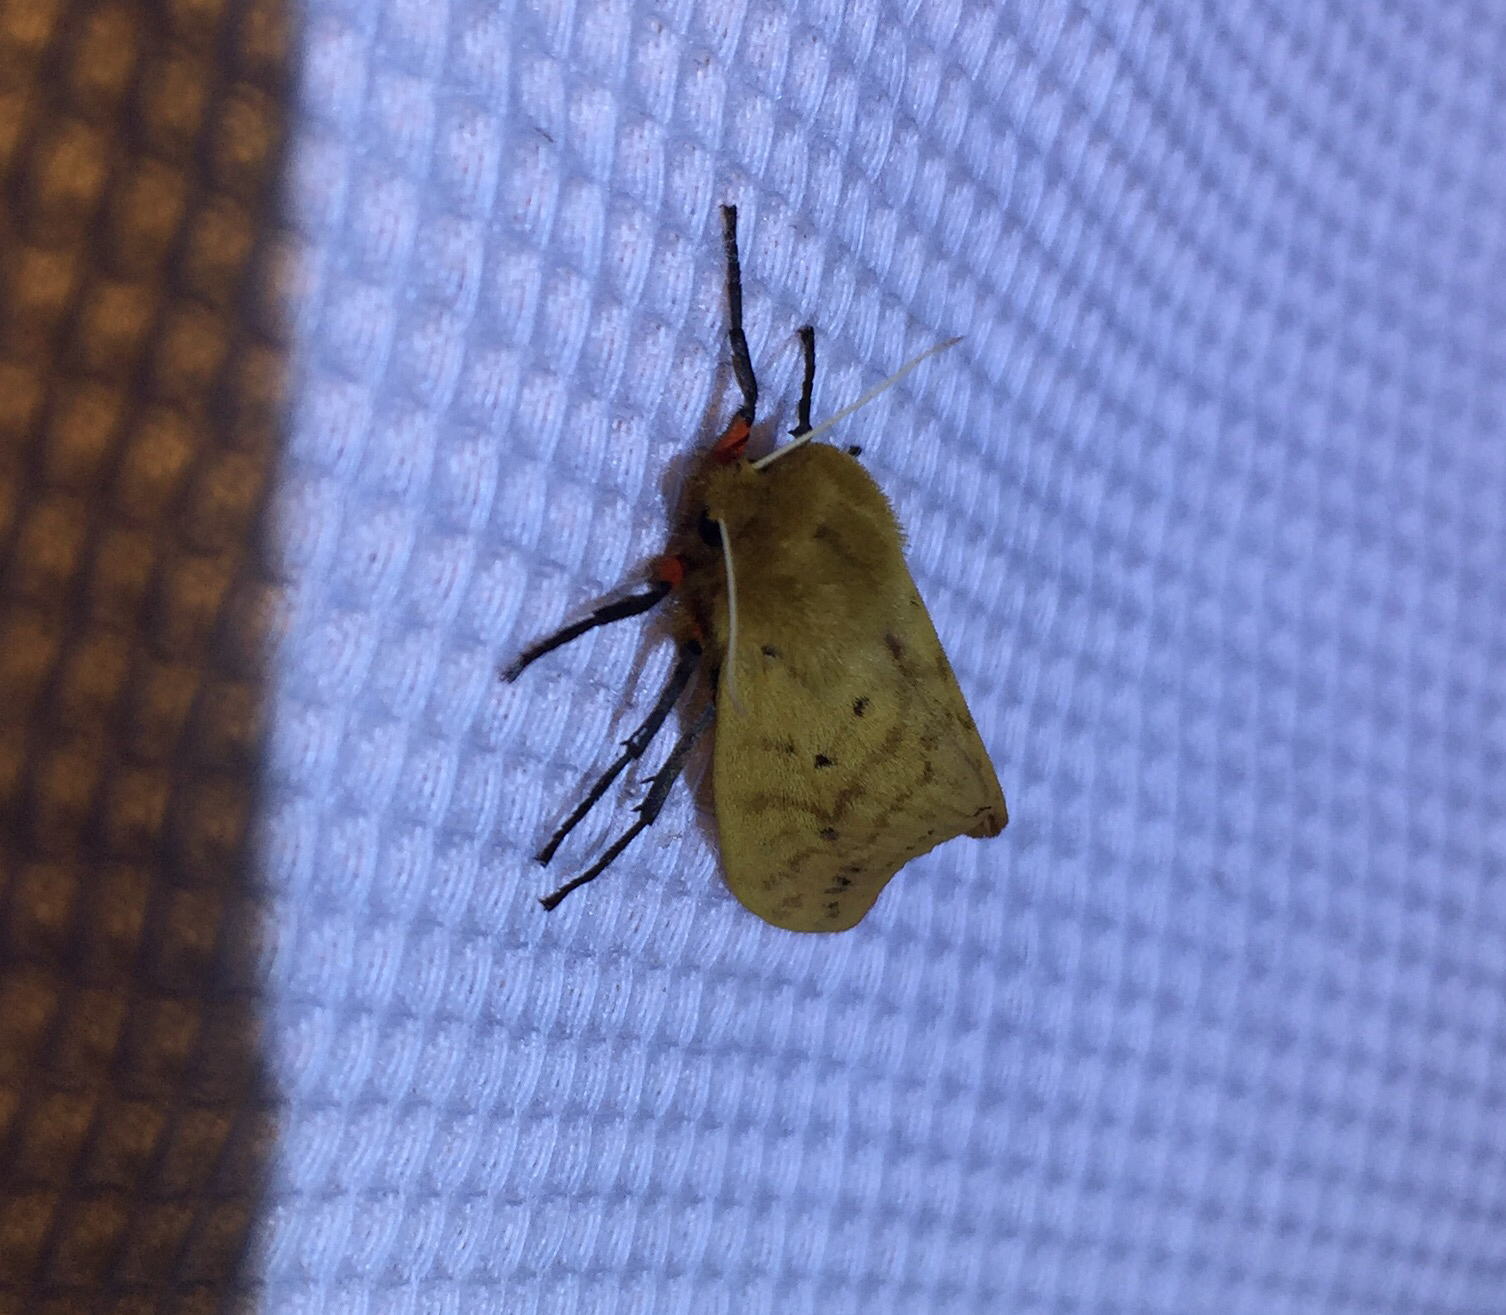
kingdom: Animalia
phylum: Arthropoda
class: Insecta
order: Lepidoptera
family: Erebidae
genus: Pyrrharctia
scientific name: Pyrrharctia isabella
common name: Isabella tiger moth
